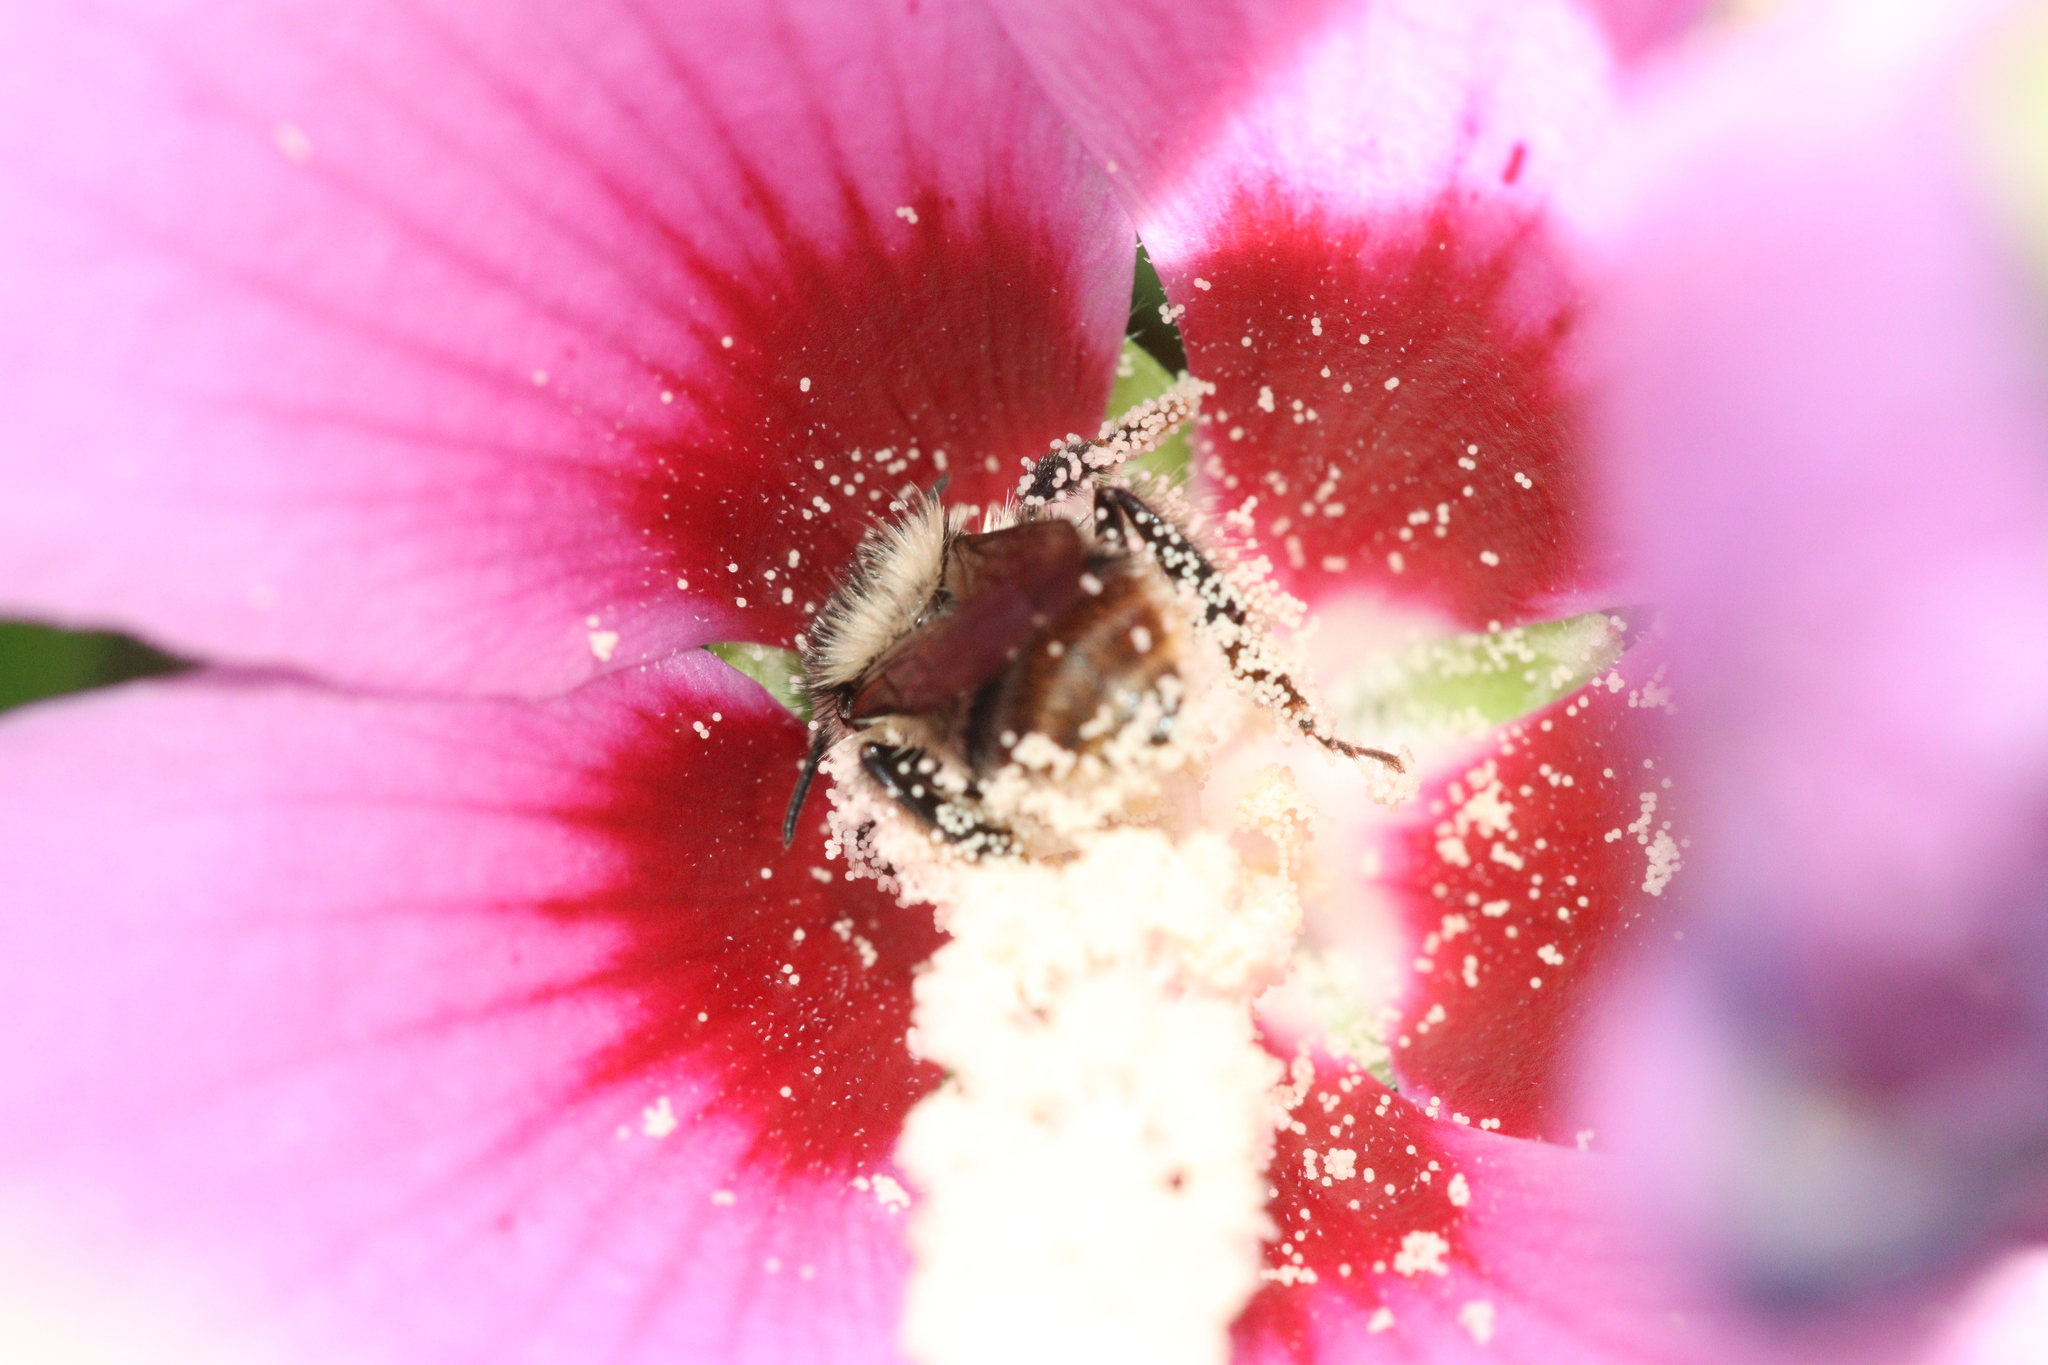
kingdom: Animalia
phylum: Arthropoda
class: Insecta
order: Hymenoptera
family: Apidae
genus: Bombus
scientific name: Bombus sylvarum
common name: Shrill carder bee
